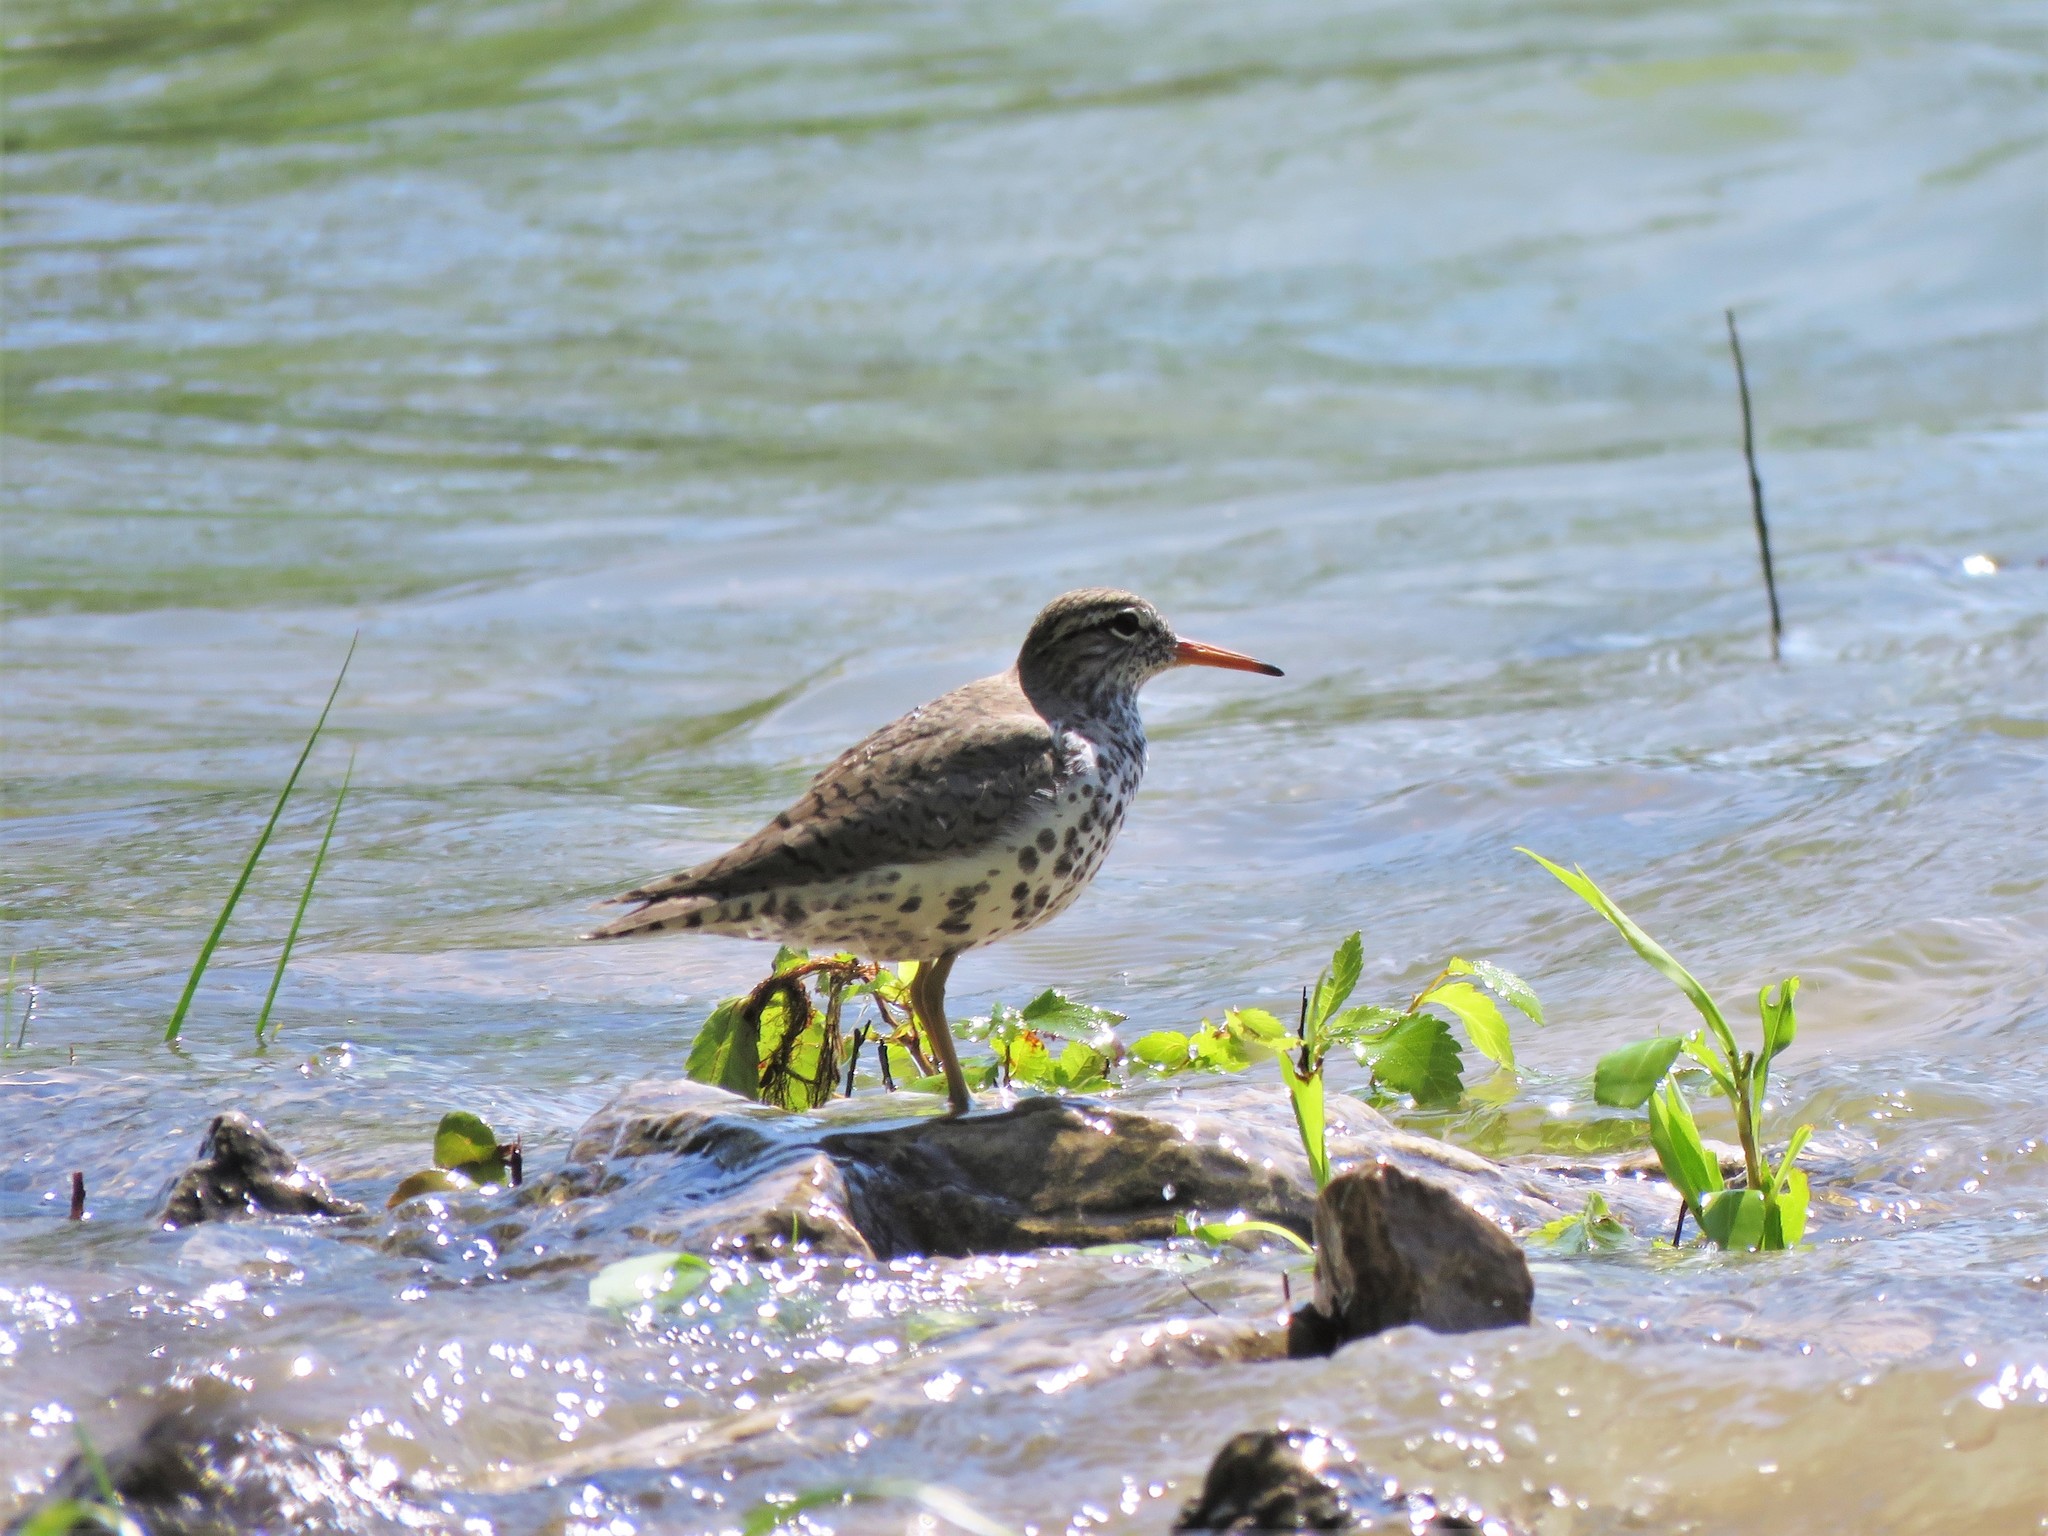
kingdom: Animalia
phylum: Chordata
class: Aves
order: Charadriiformes
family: Scolopacidae
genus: Actitis
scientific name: Actitis macularius
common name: Spotted sandpiper
